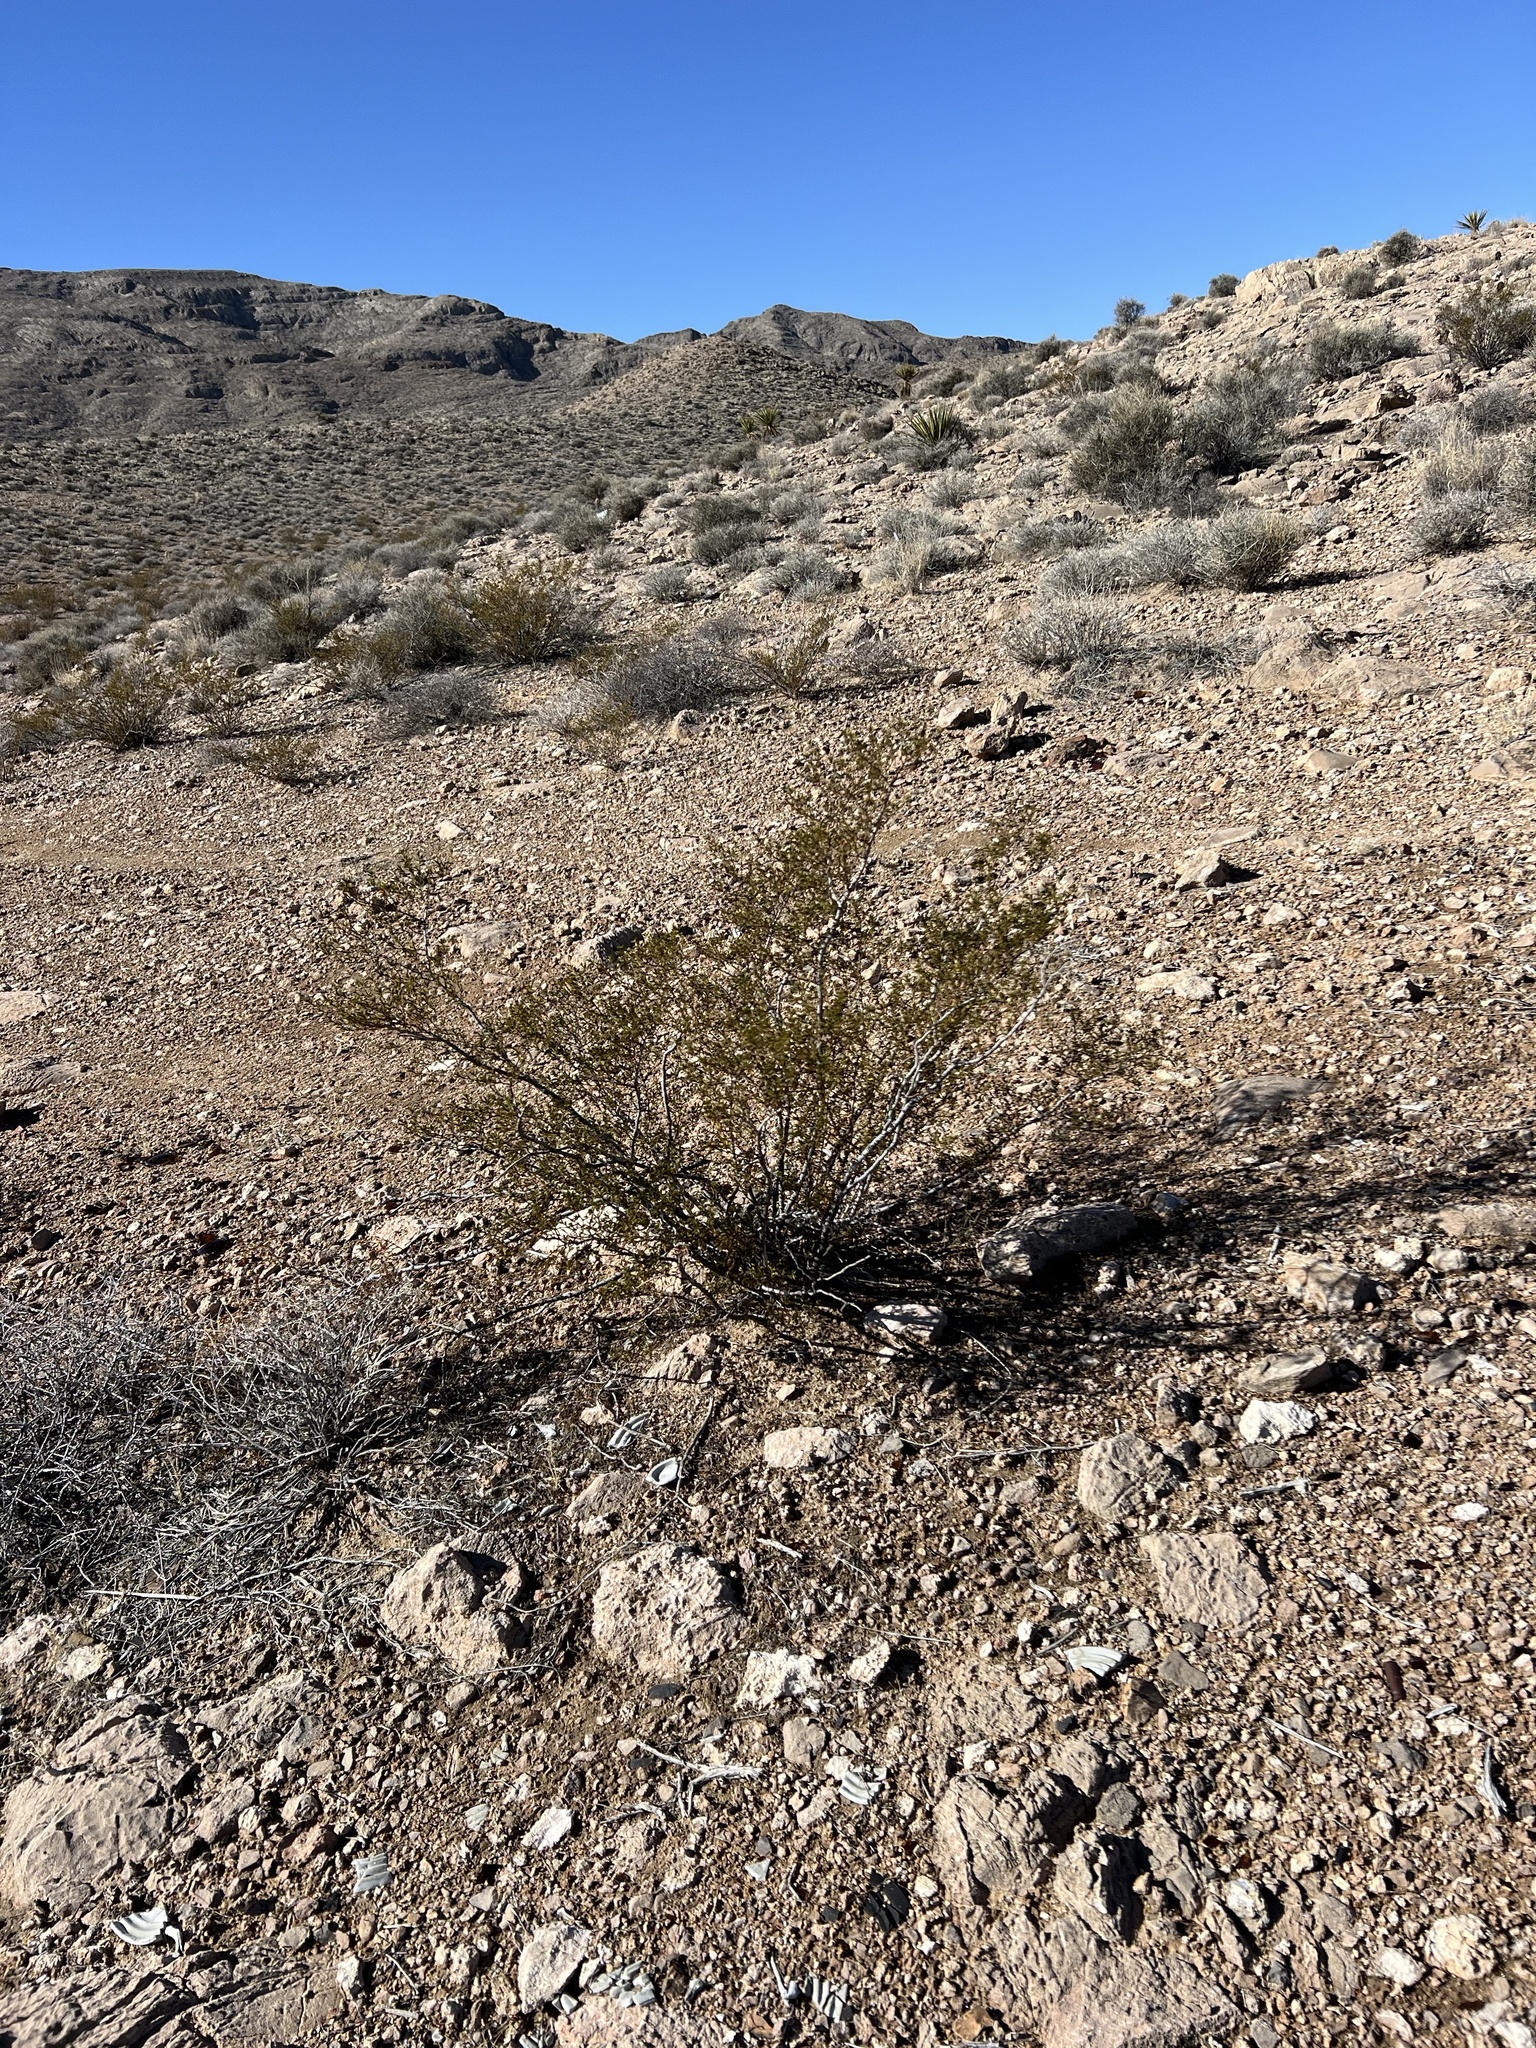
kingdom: Plantae
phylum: Tracheophyta
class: Magnoliopsida
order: Zygophyllales
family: Zygophyllaceae
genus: Larrea
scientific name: Larrea tridentata
